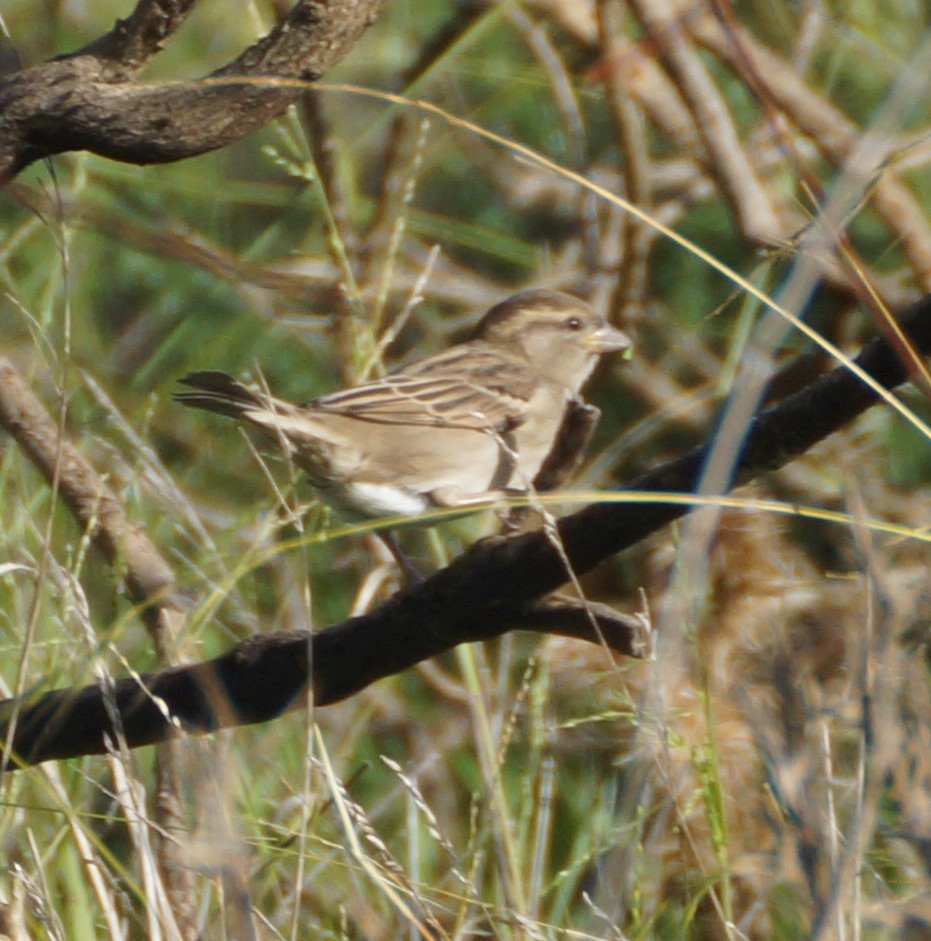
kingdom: Animalia
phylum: Chordata
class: Aves
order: Passeriformes
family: Passeridae
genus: Passer
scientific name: Passer domesticus
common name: House sparrow
